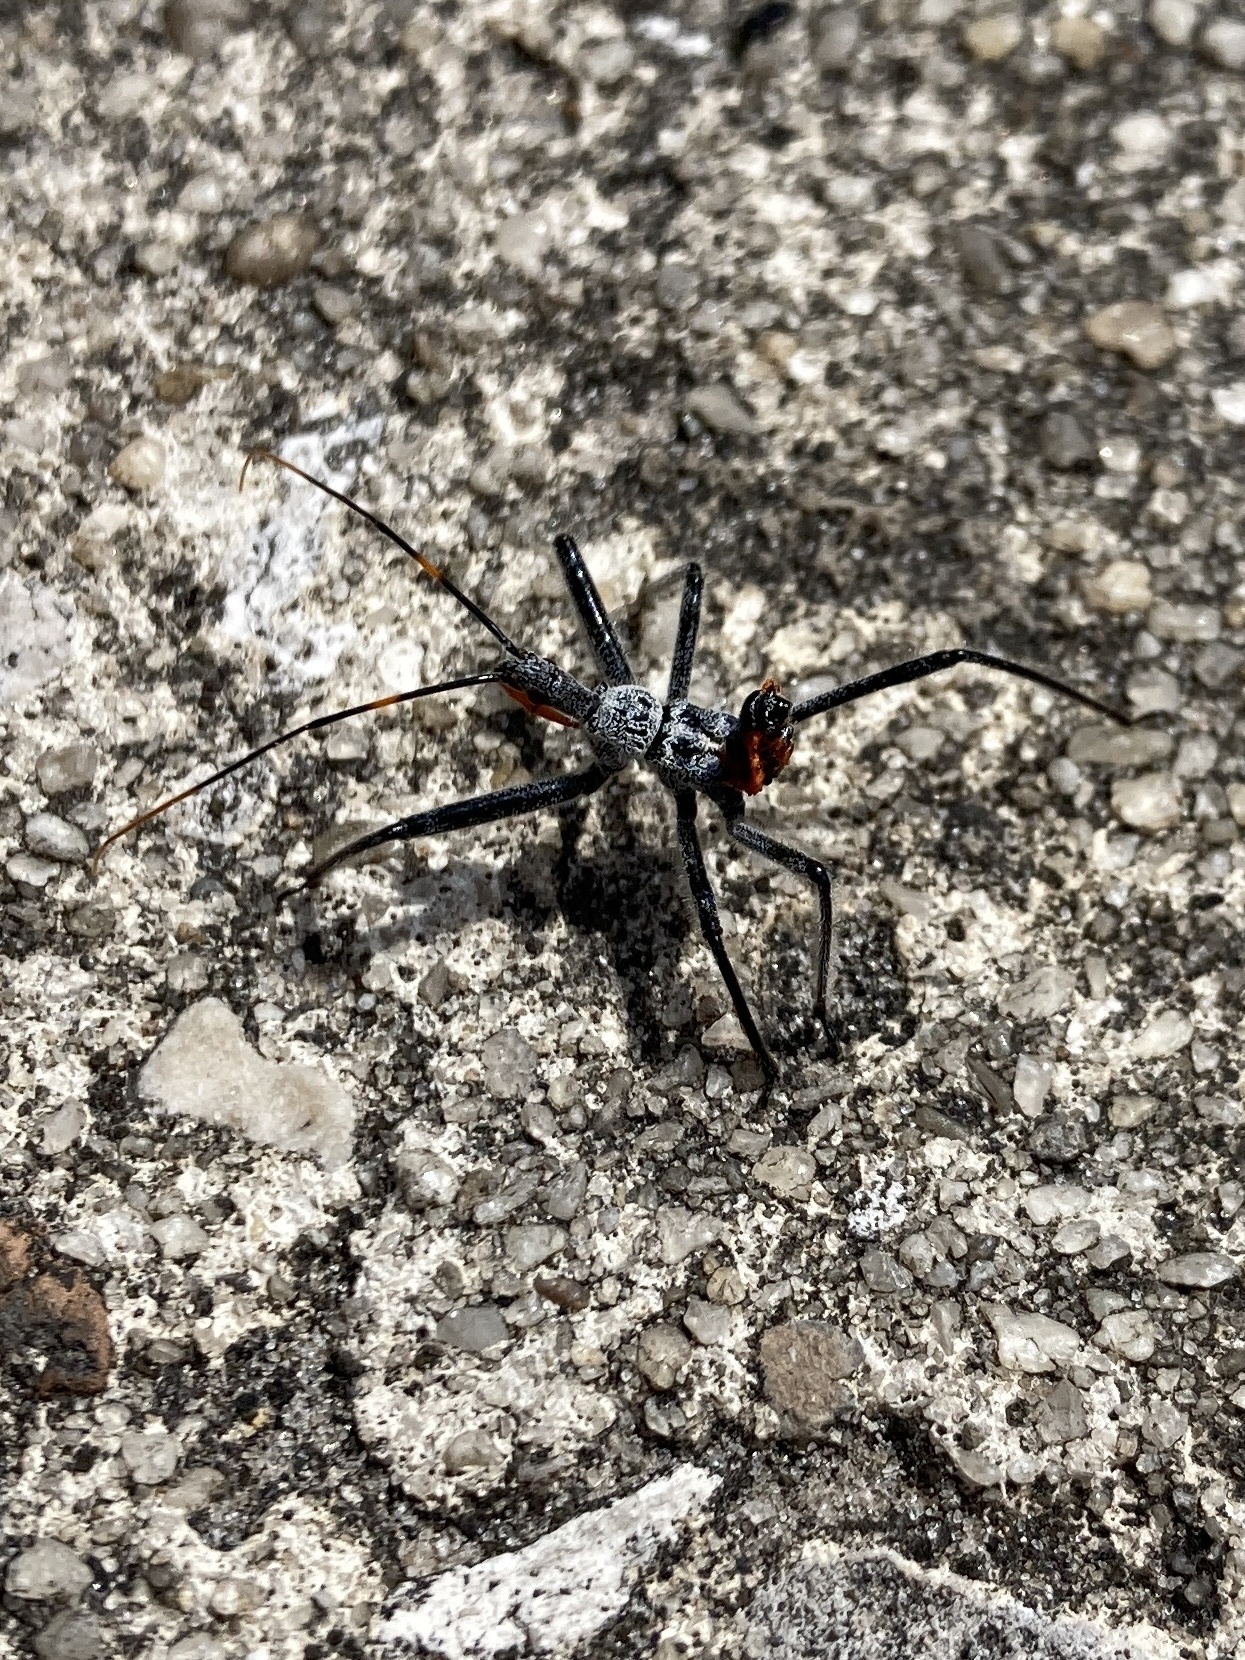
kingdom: Animalia
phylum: Arthropoda
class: Insecta
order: Hemiptera
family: Reduviidae
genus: Arilus
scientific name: Arilus cristatus
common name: North american wheel bug
